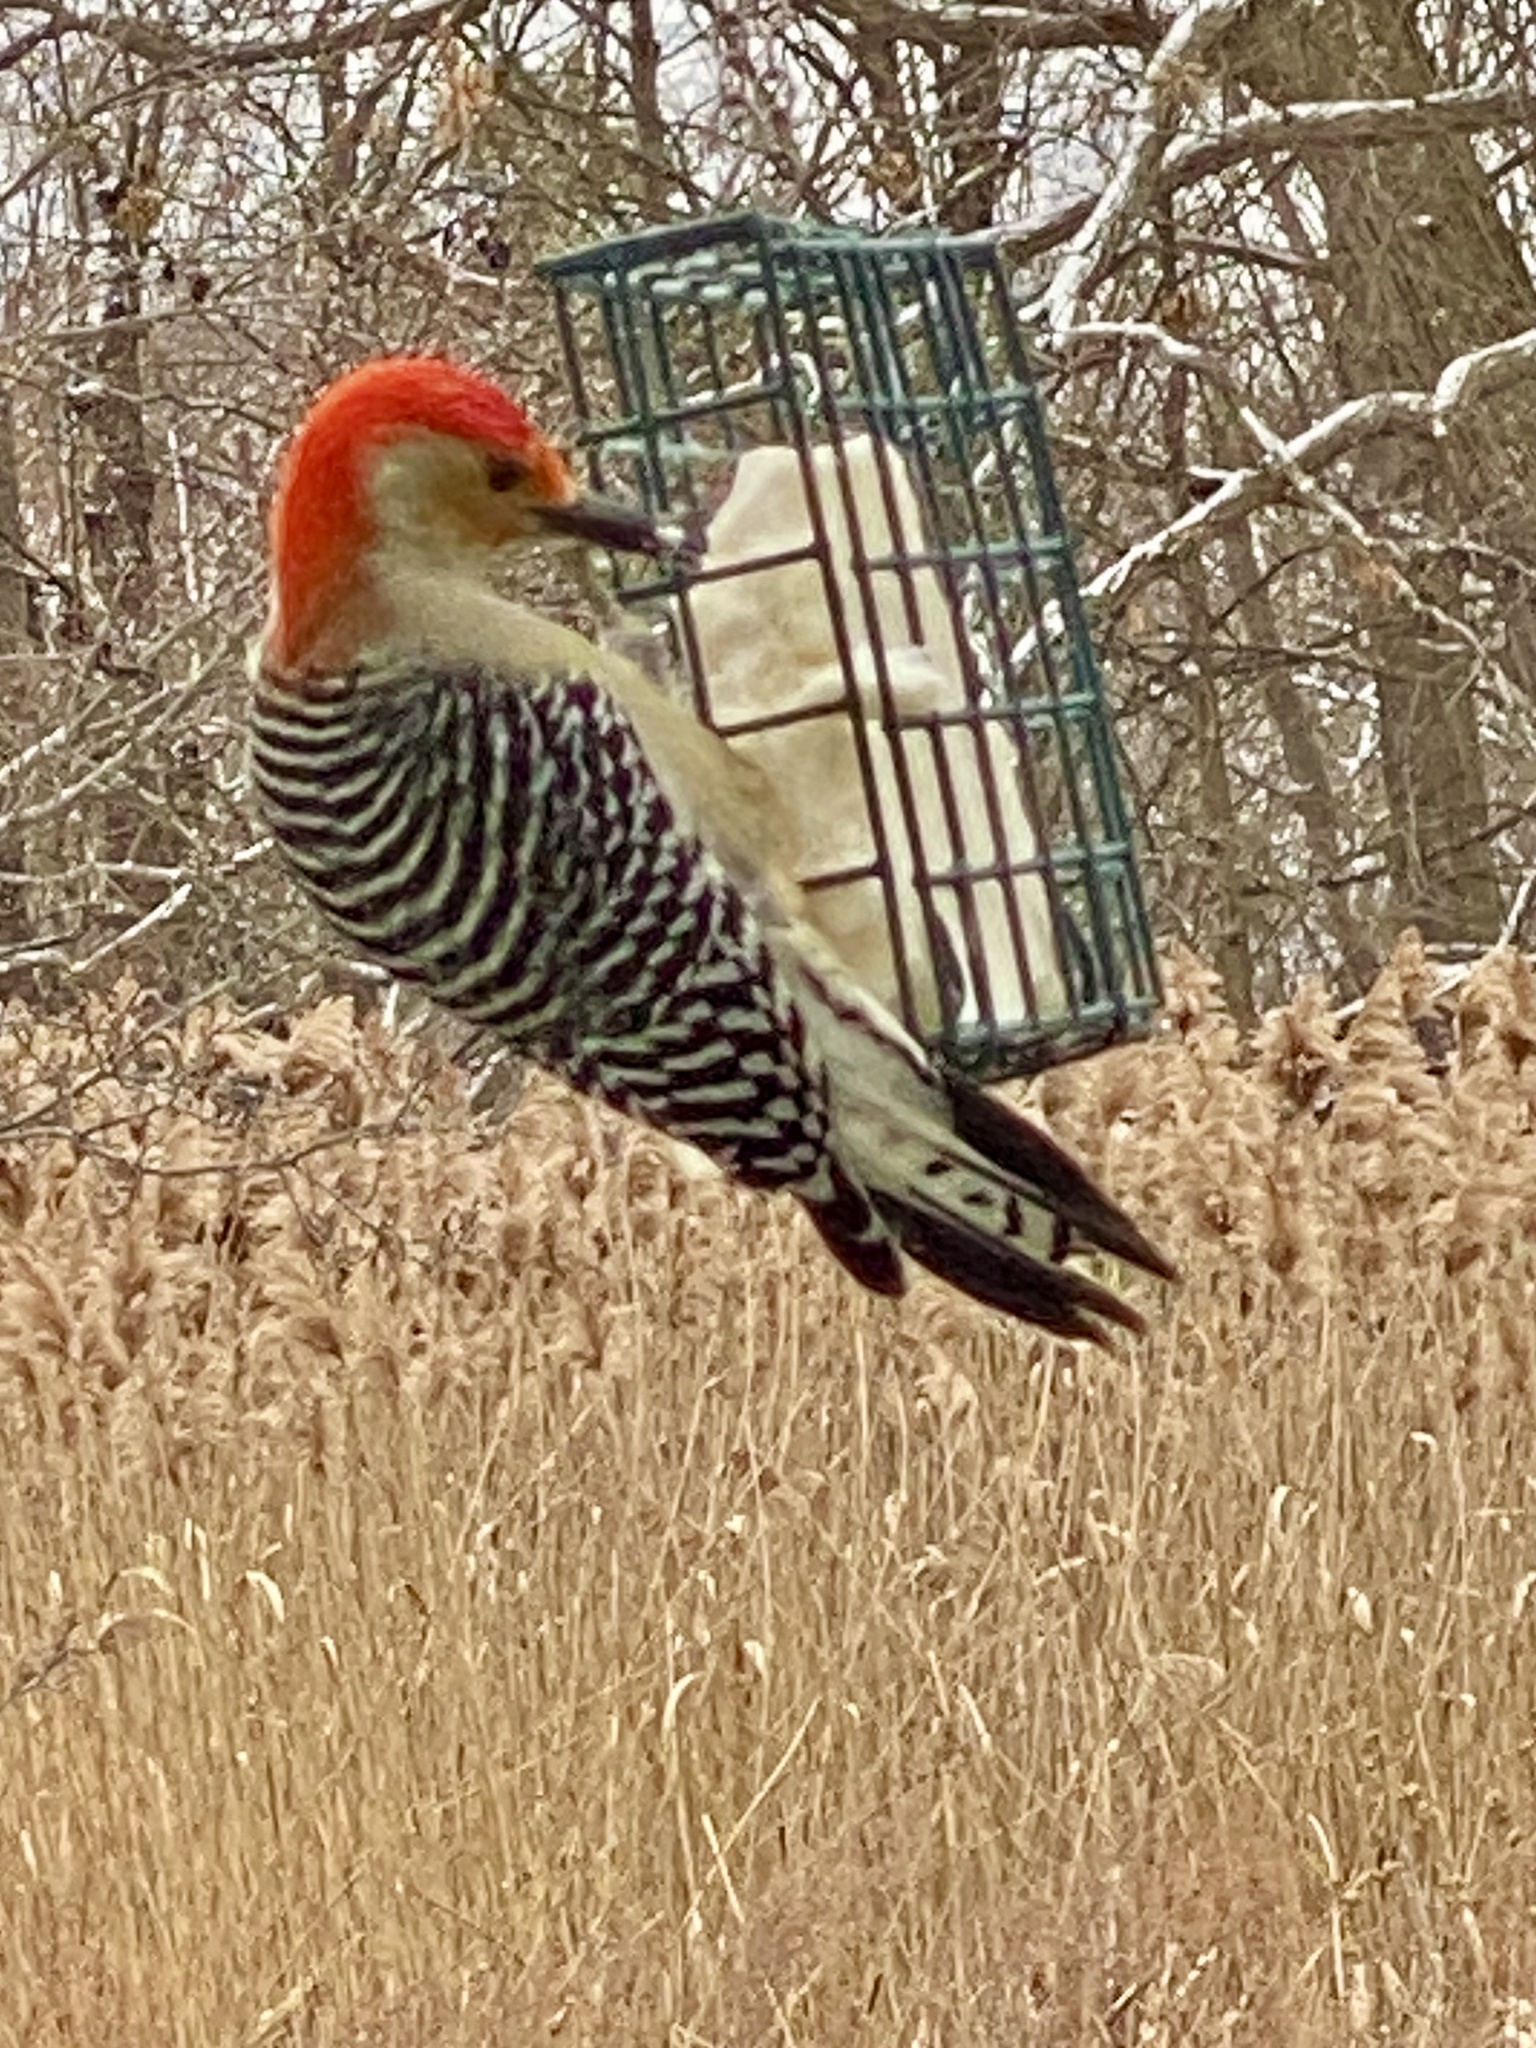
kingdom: Animalia
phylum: Chordata
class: Aves
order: Piciformes
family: Picidae
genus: Melanerpes
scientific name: Melanerpes carolinus
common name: Red-bellied woodpecker
